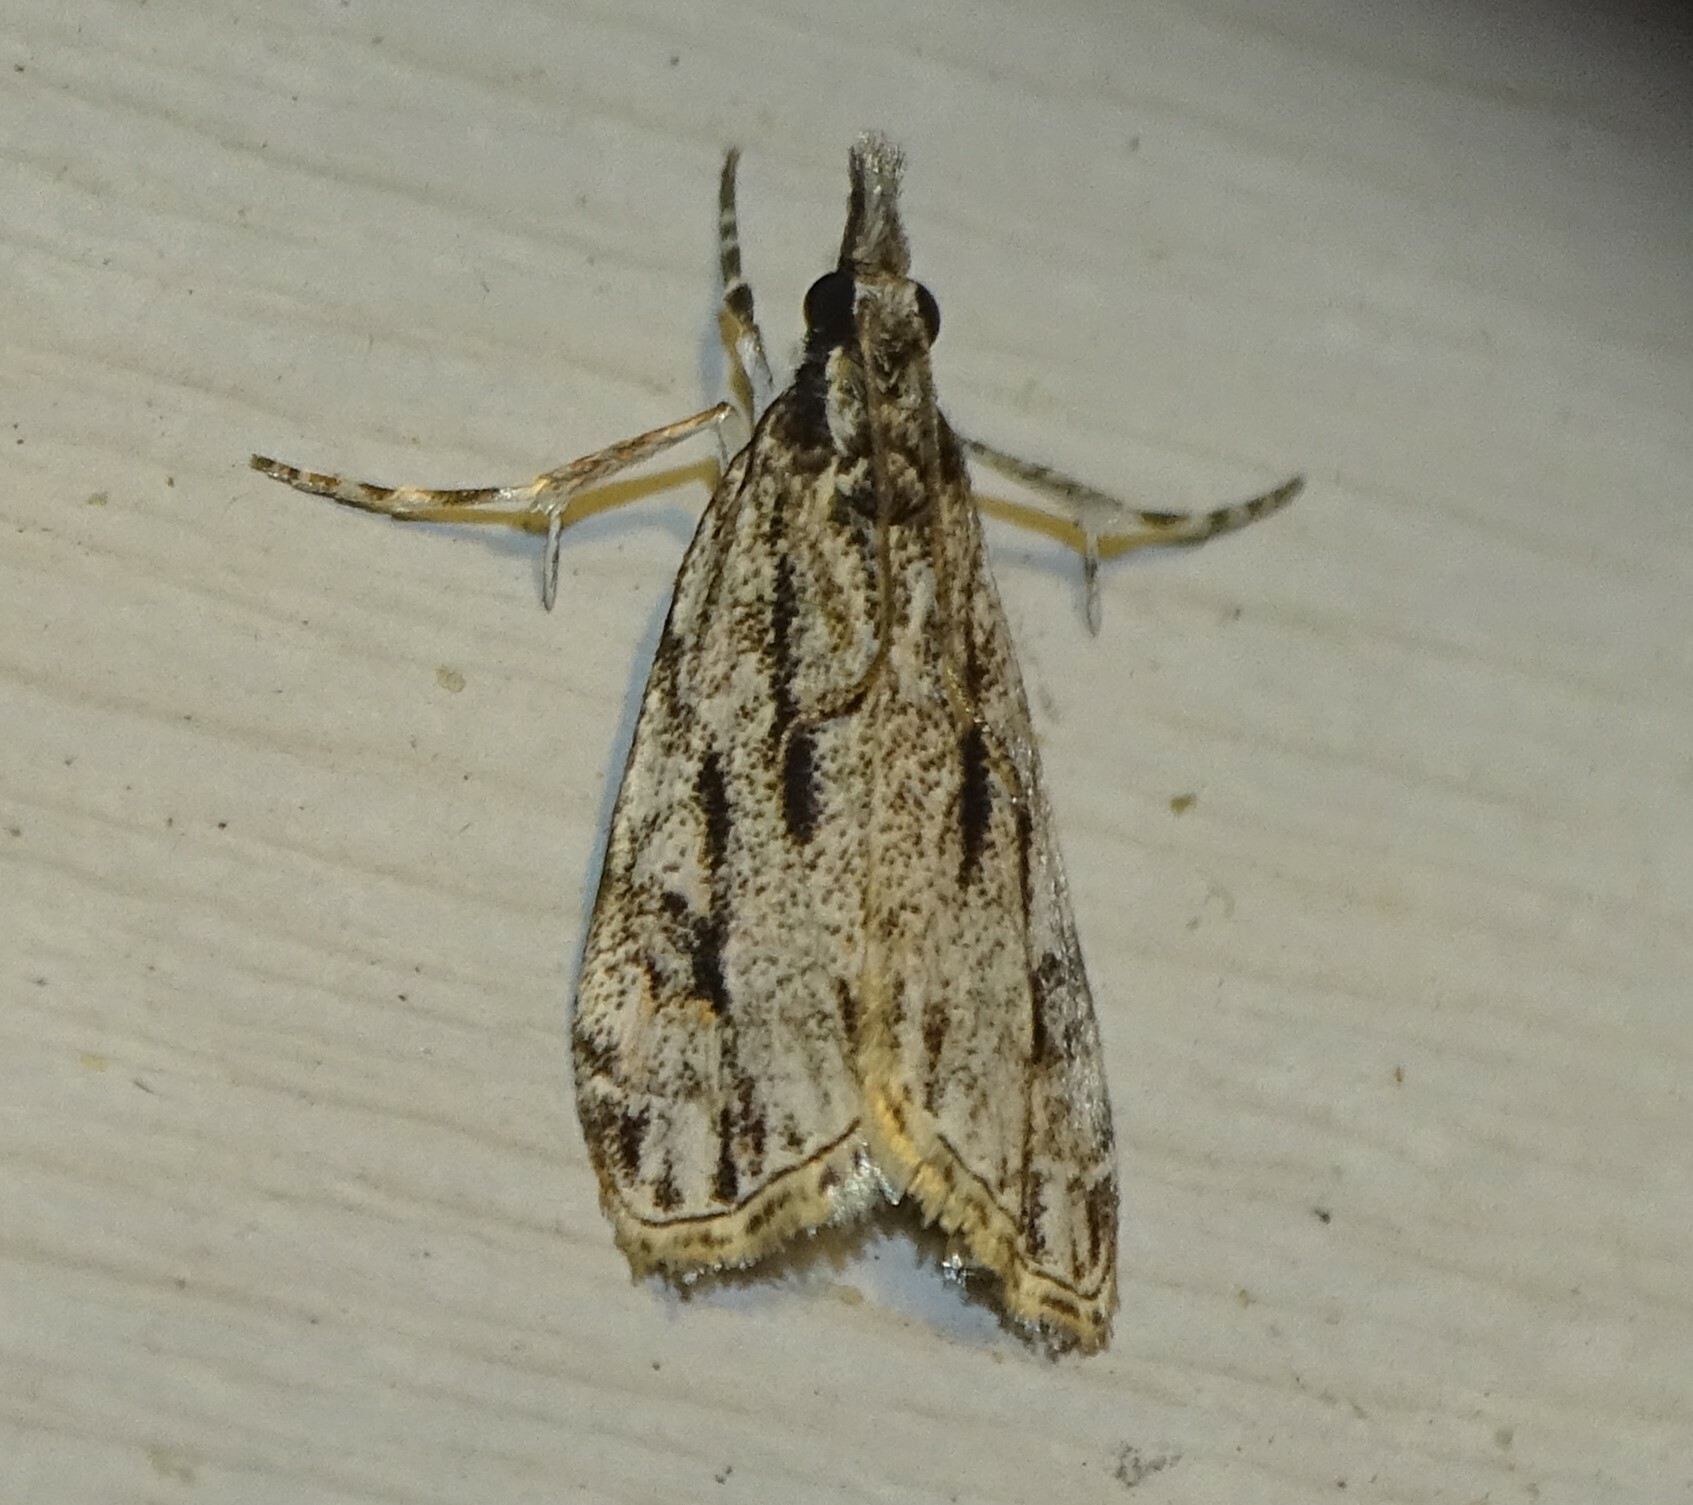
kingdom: Animalia
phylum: Arthropoda
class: Insecta
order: Lepidoptera
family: Crambidae
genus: Eudonia
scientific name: Eudonia strigalis
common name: Striped eudonia moth
